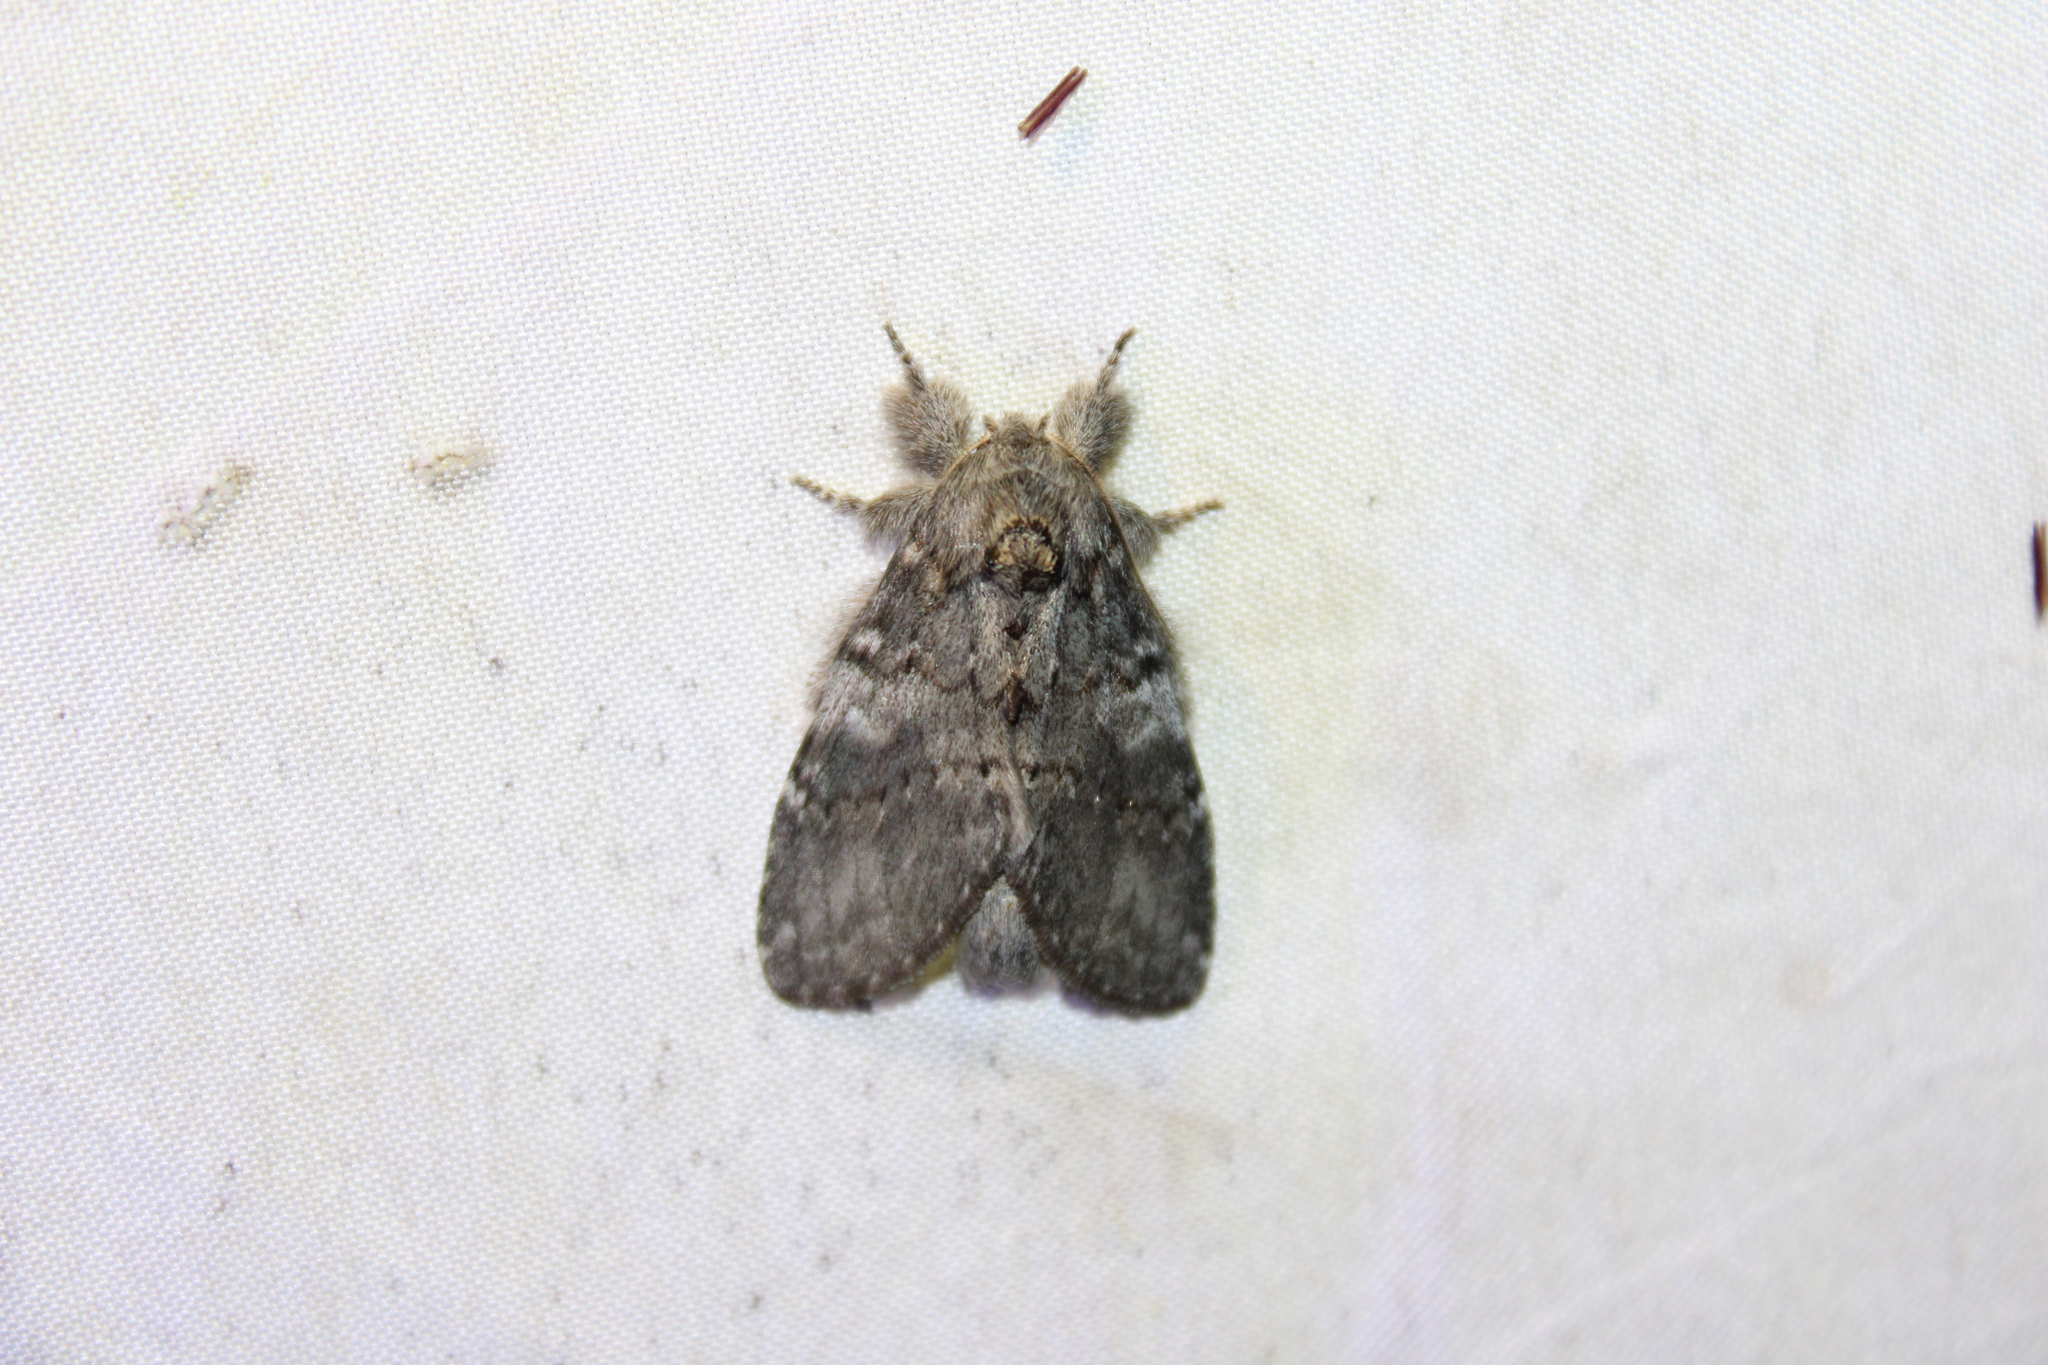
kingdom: Animalia
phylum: Arthropoda
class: Insecta
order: Lepidoptera
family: Notodontidae
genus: Peridea
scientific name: Peridea angulosa
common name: Angulose prominent
